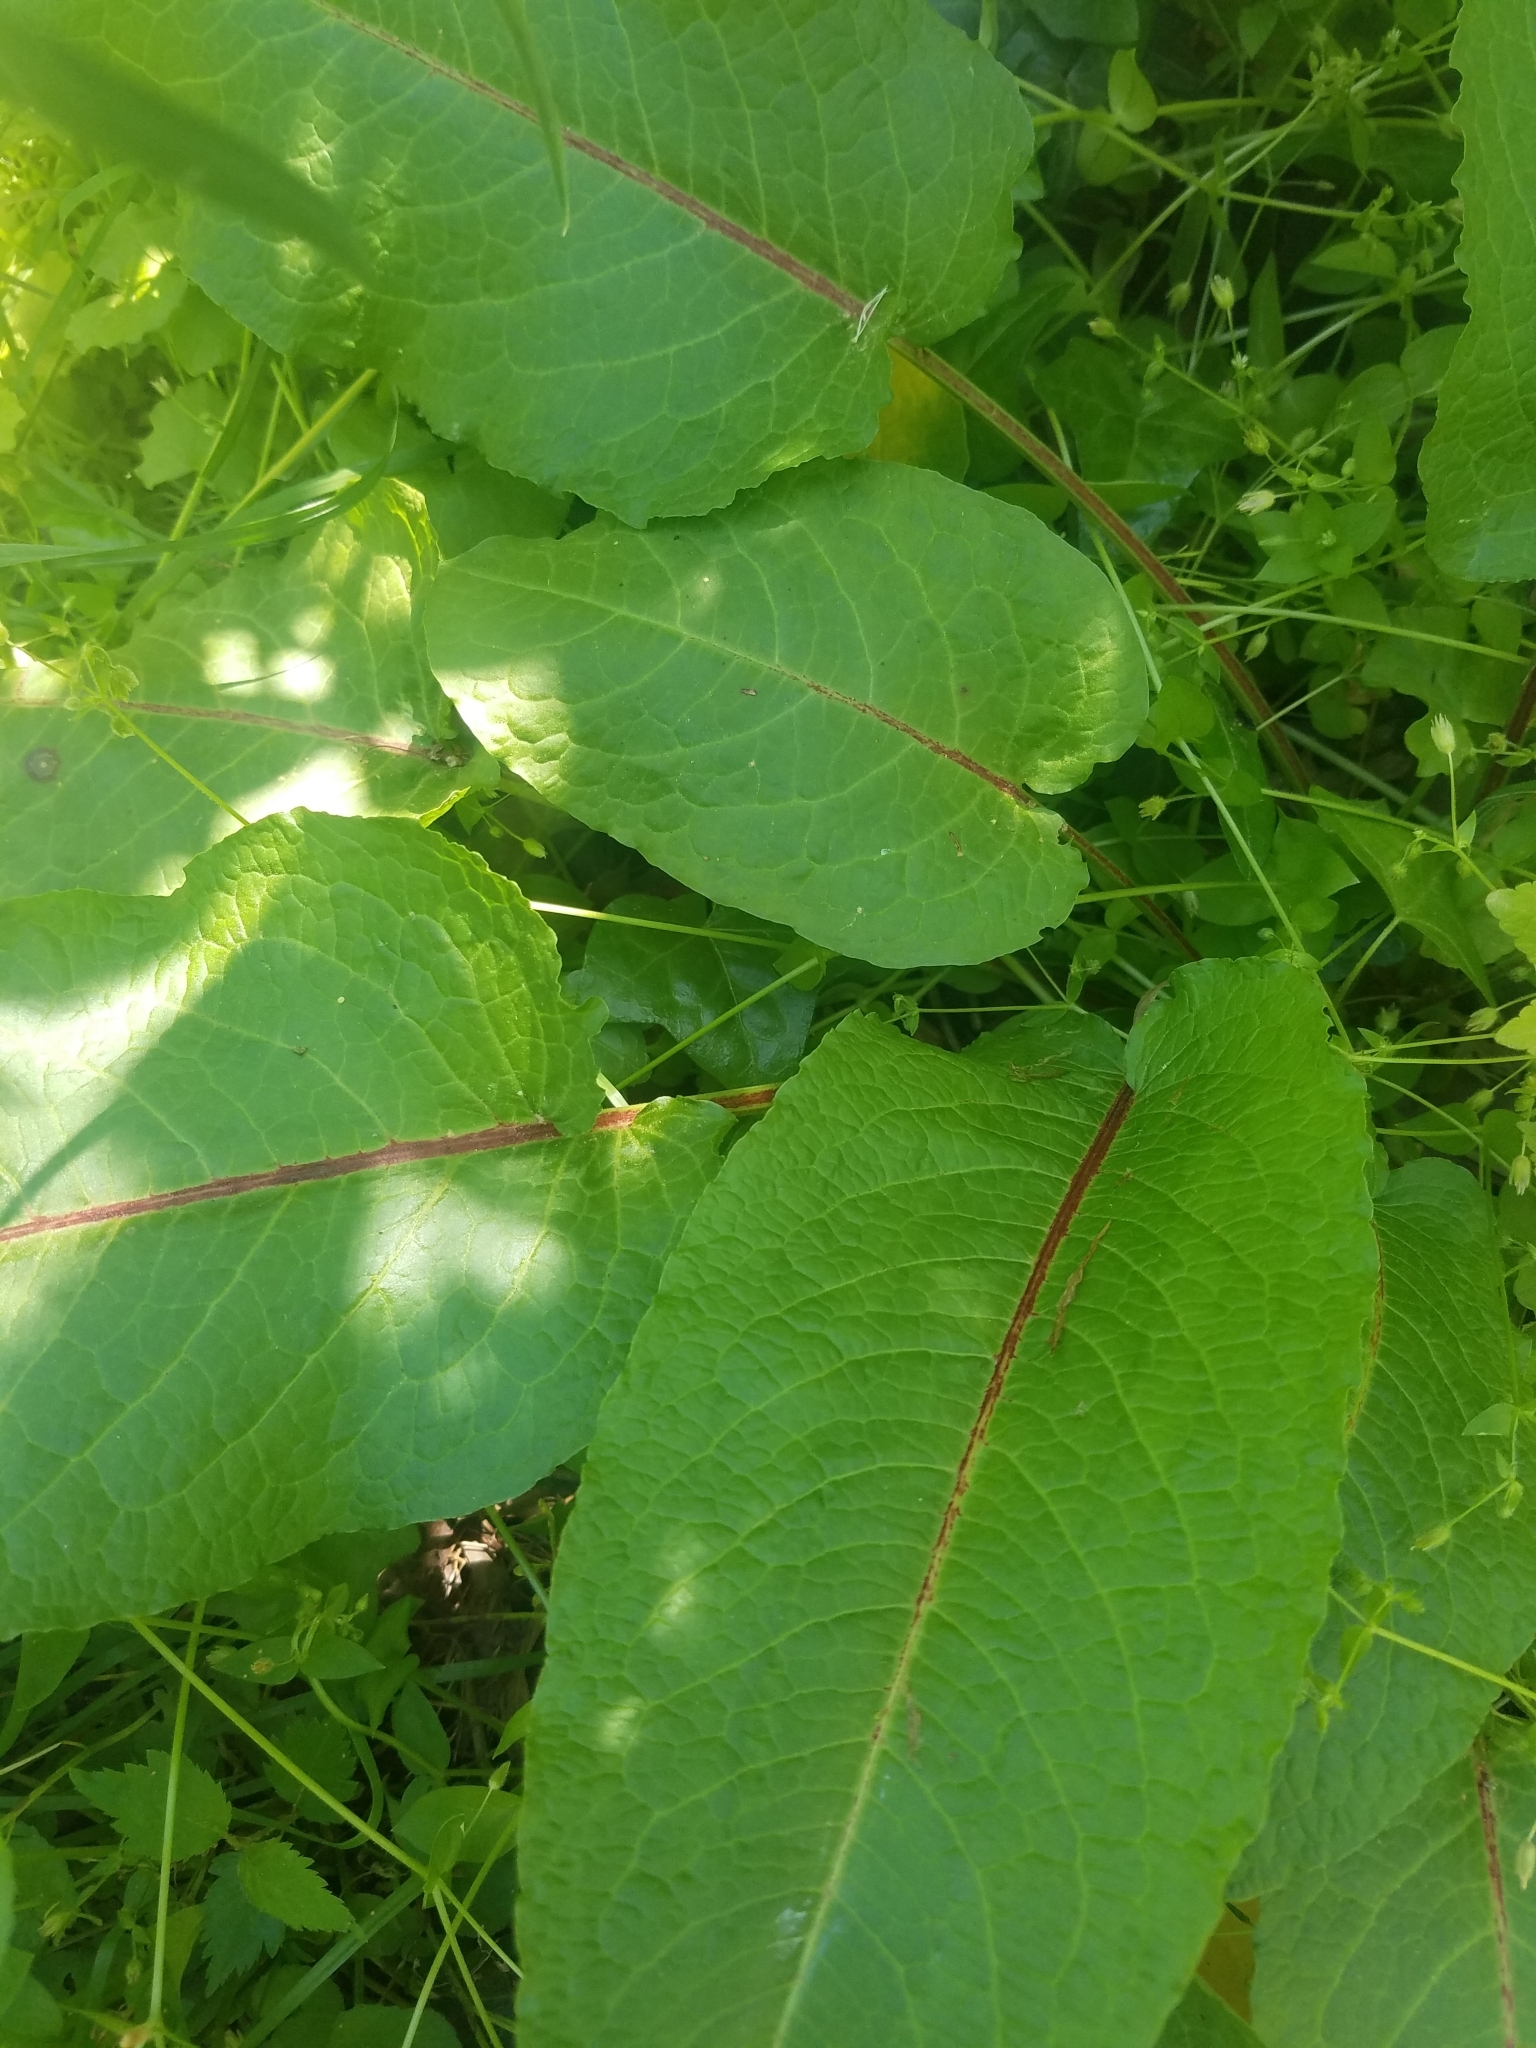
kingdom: Plantae
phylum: Tracheophyta
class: Magnoliopsida
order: Caryophyllales
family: Polygonaceae
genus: Rumex
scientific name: Rumex obtusifolius
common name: Bitter dock
